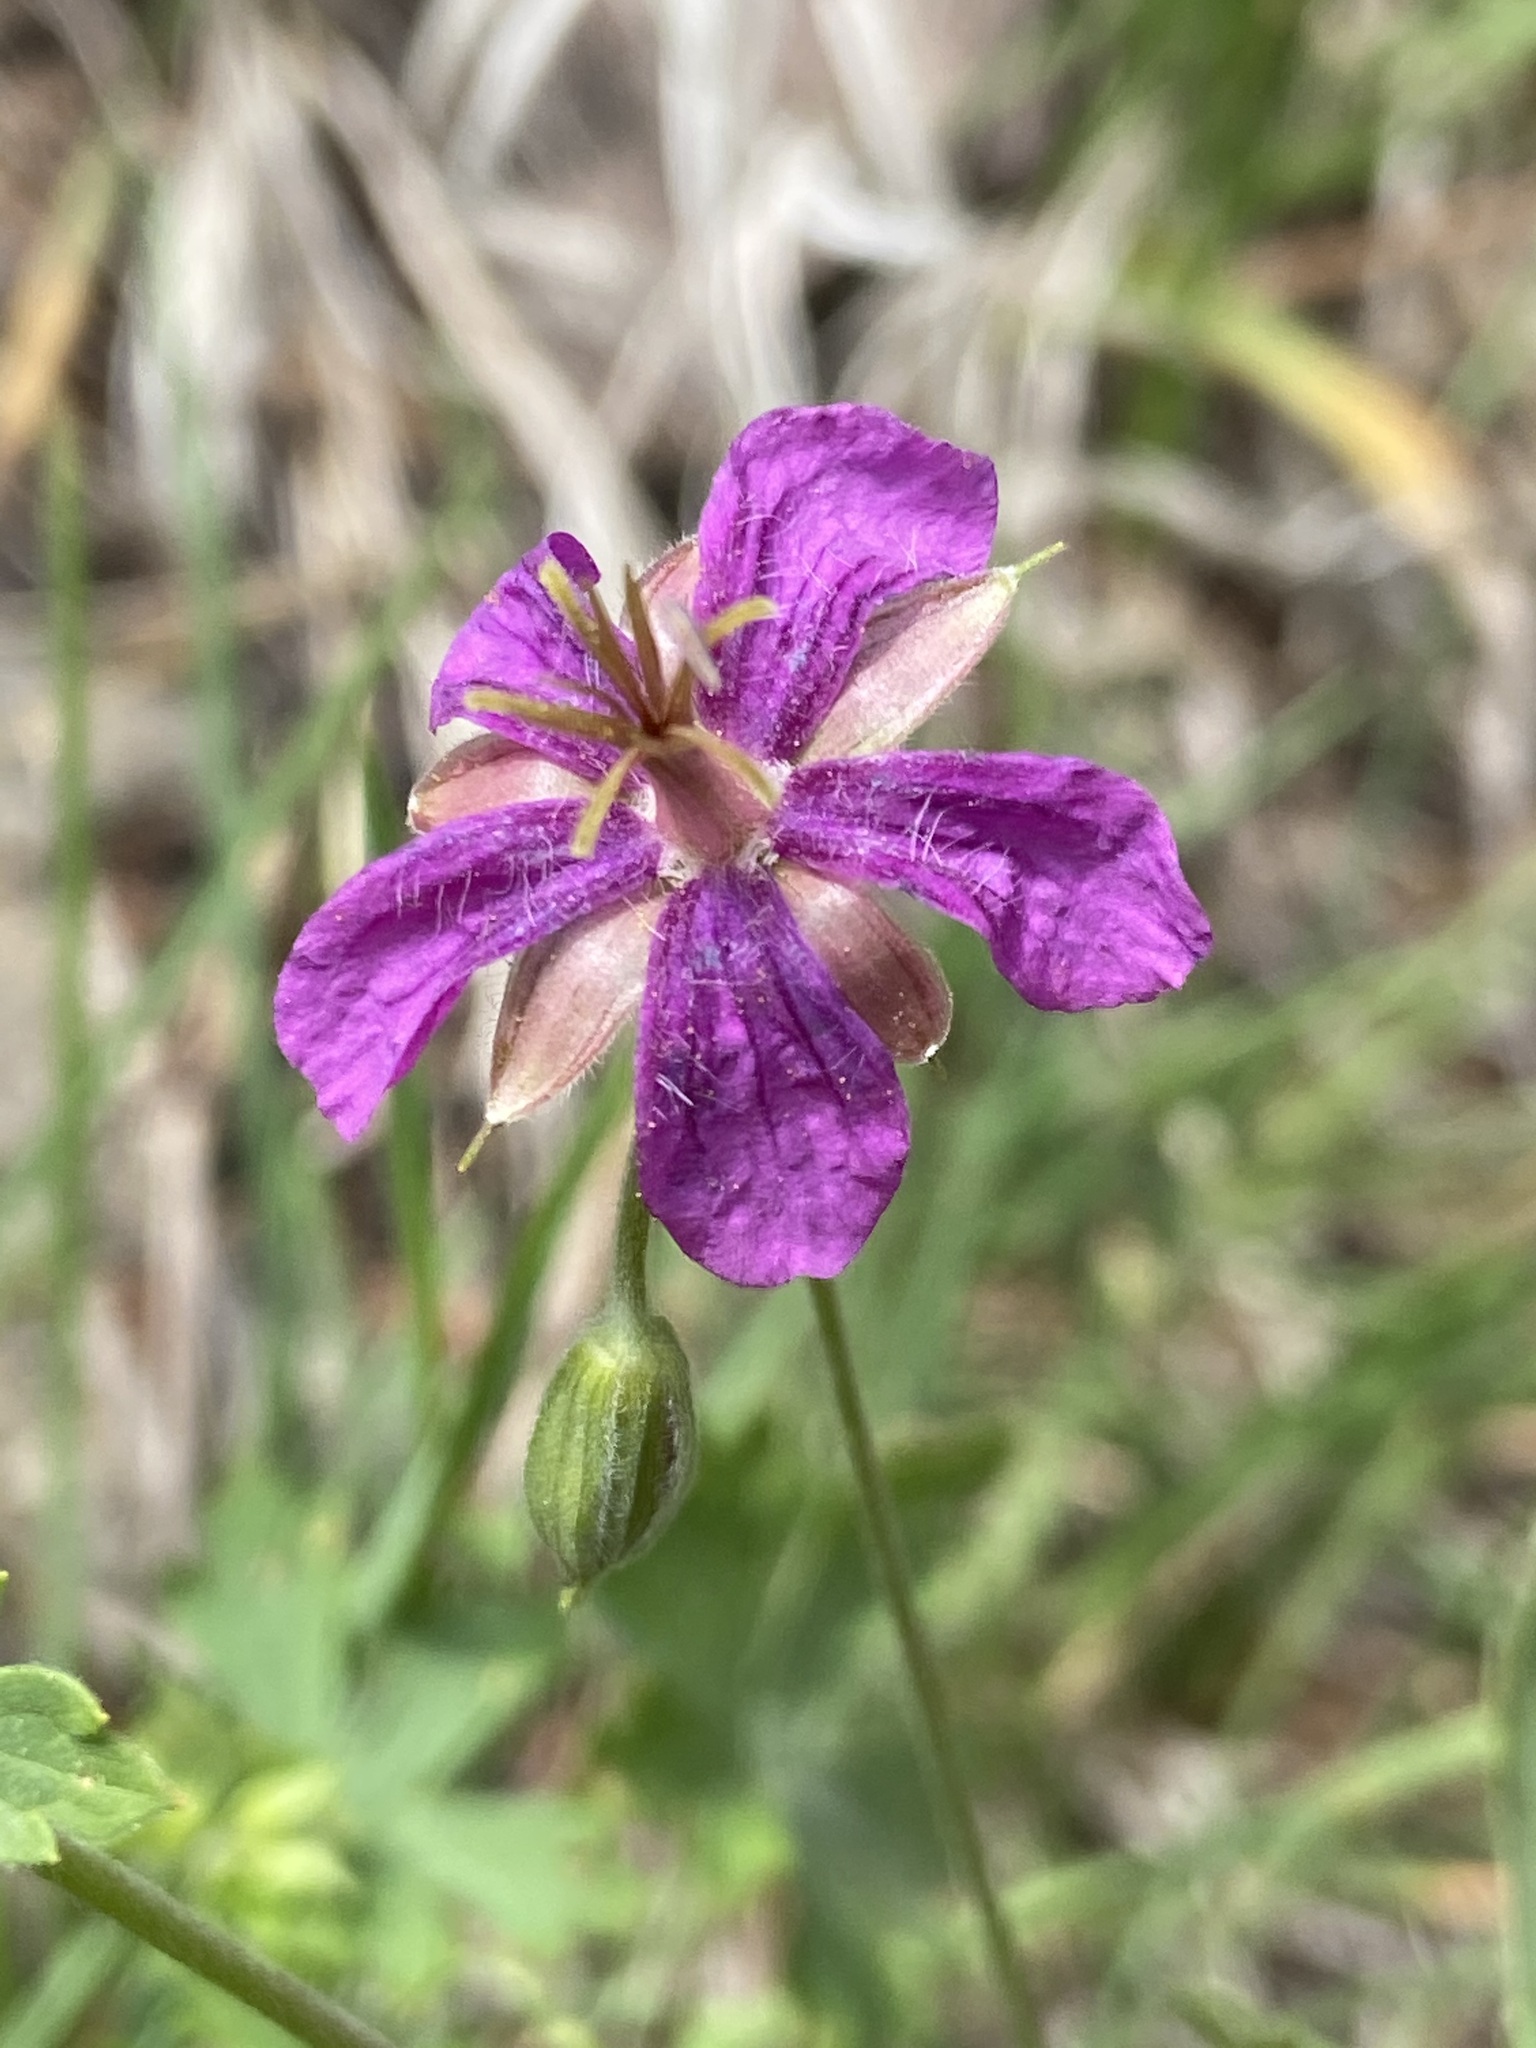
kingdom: Plantae
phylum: Tracheophyta
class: Magnoliopsida
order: Geraniales
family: Geraniaceae
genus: Geranium
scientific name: Geranium caespitosum
